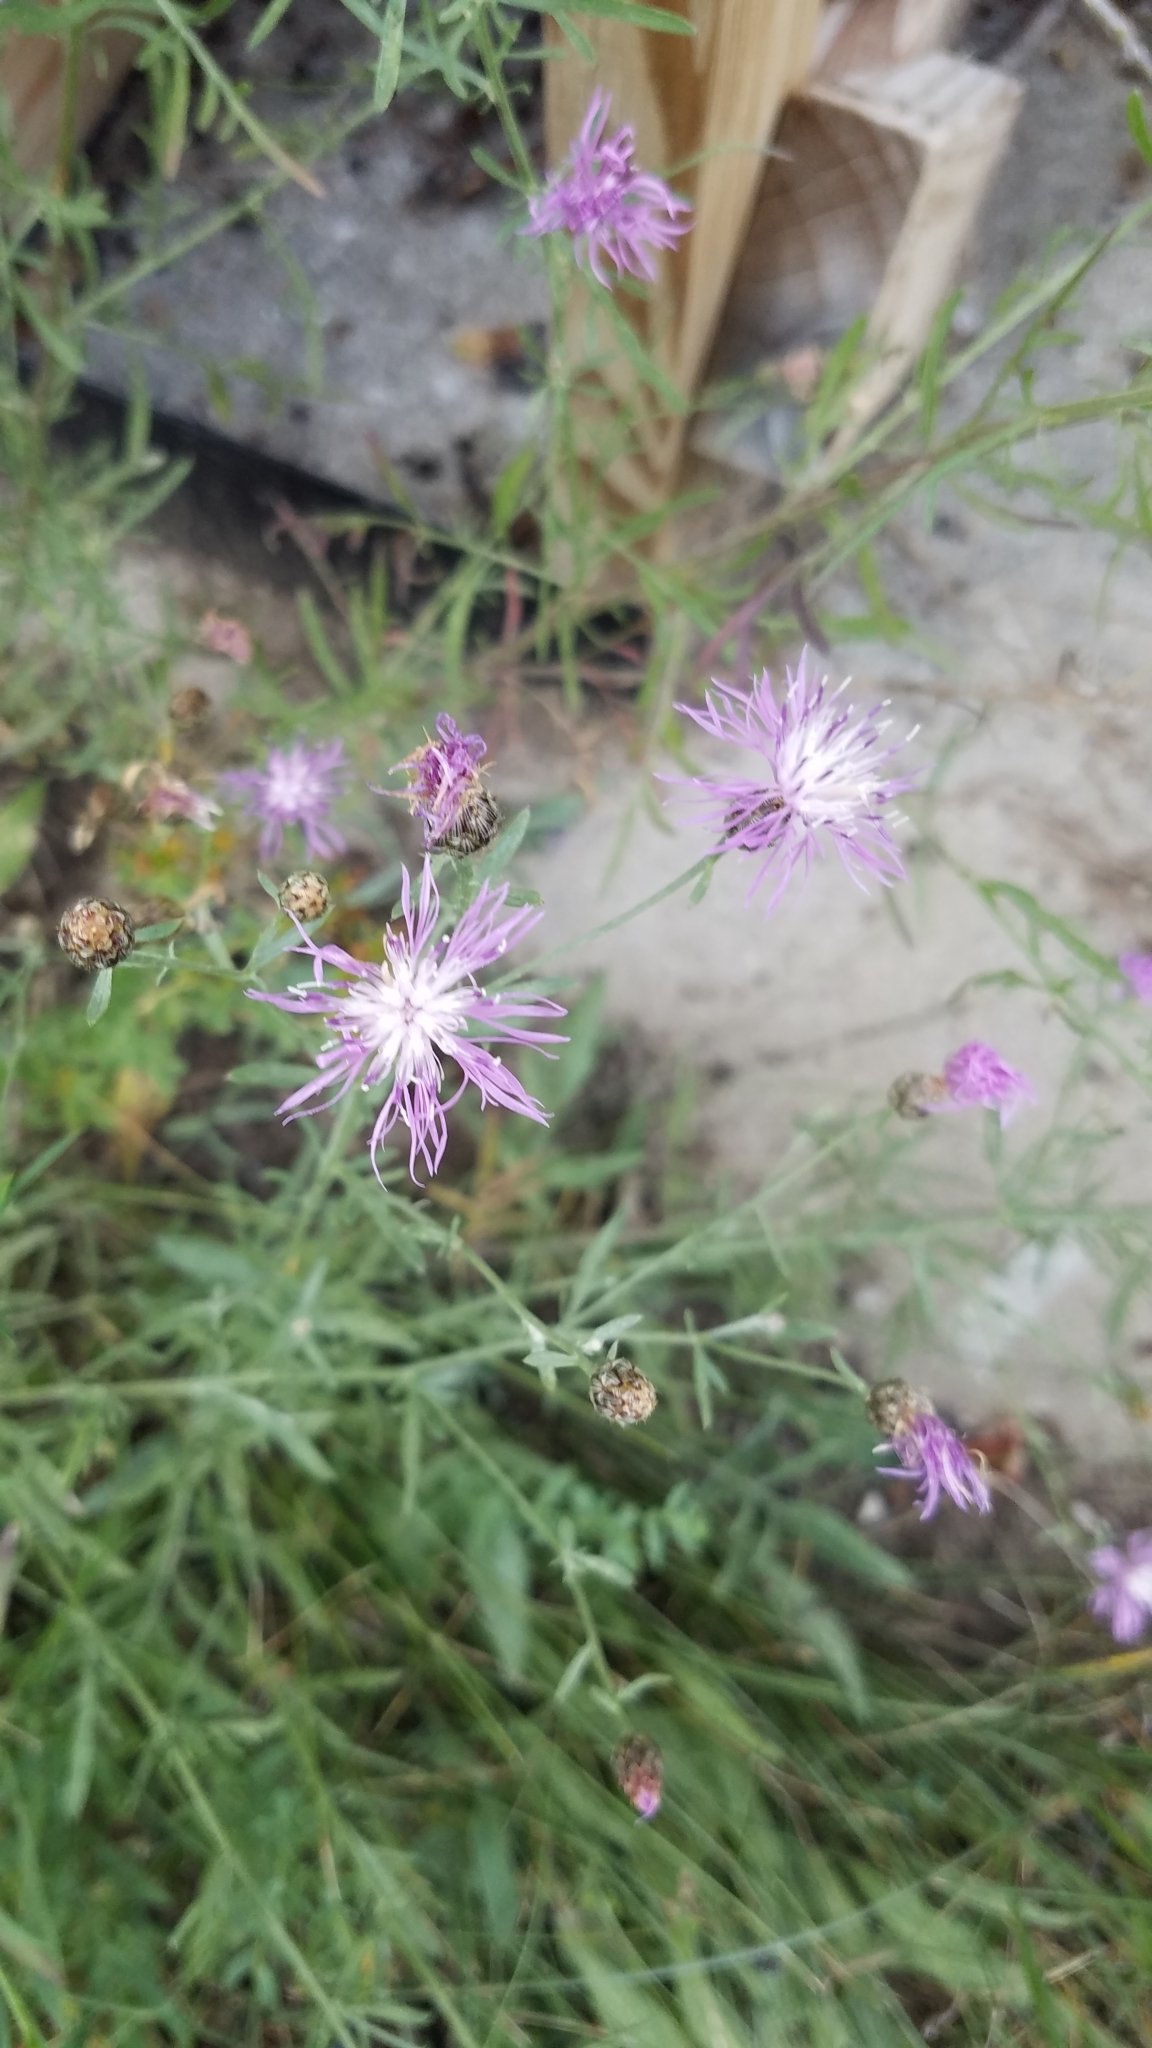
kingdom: Plantae
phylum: Tracheophyta
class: Magnoliopsida
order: Asterales
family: Asteraceae
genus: Centaurea
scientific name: Centaurea stoebe
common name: Spotted knapweed
